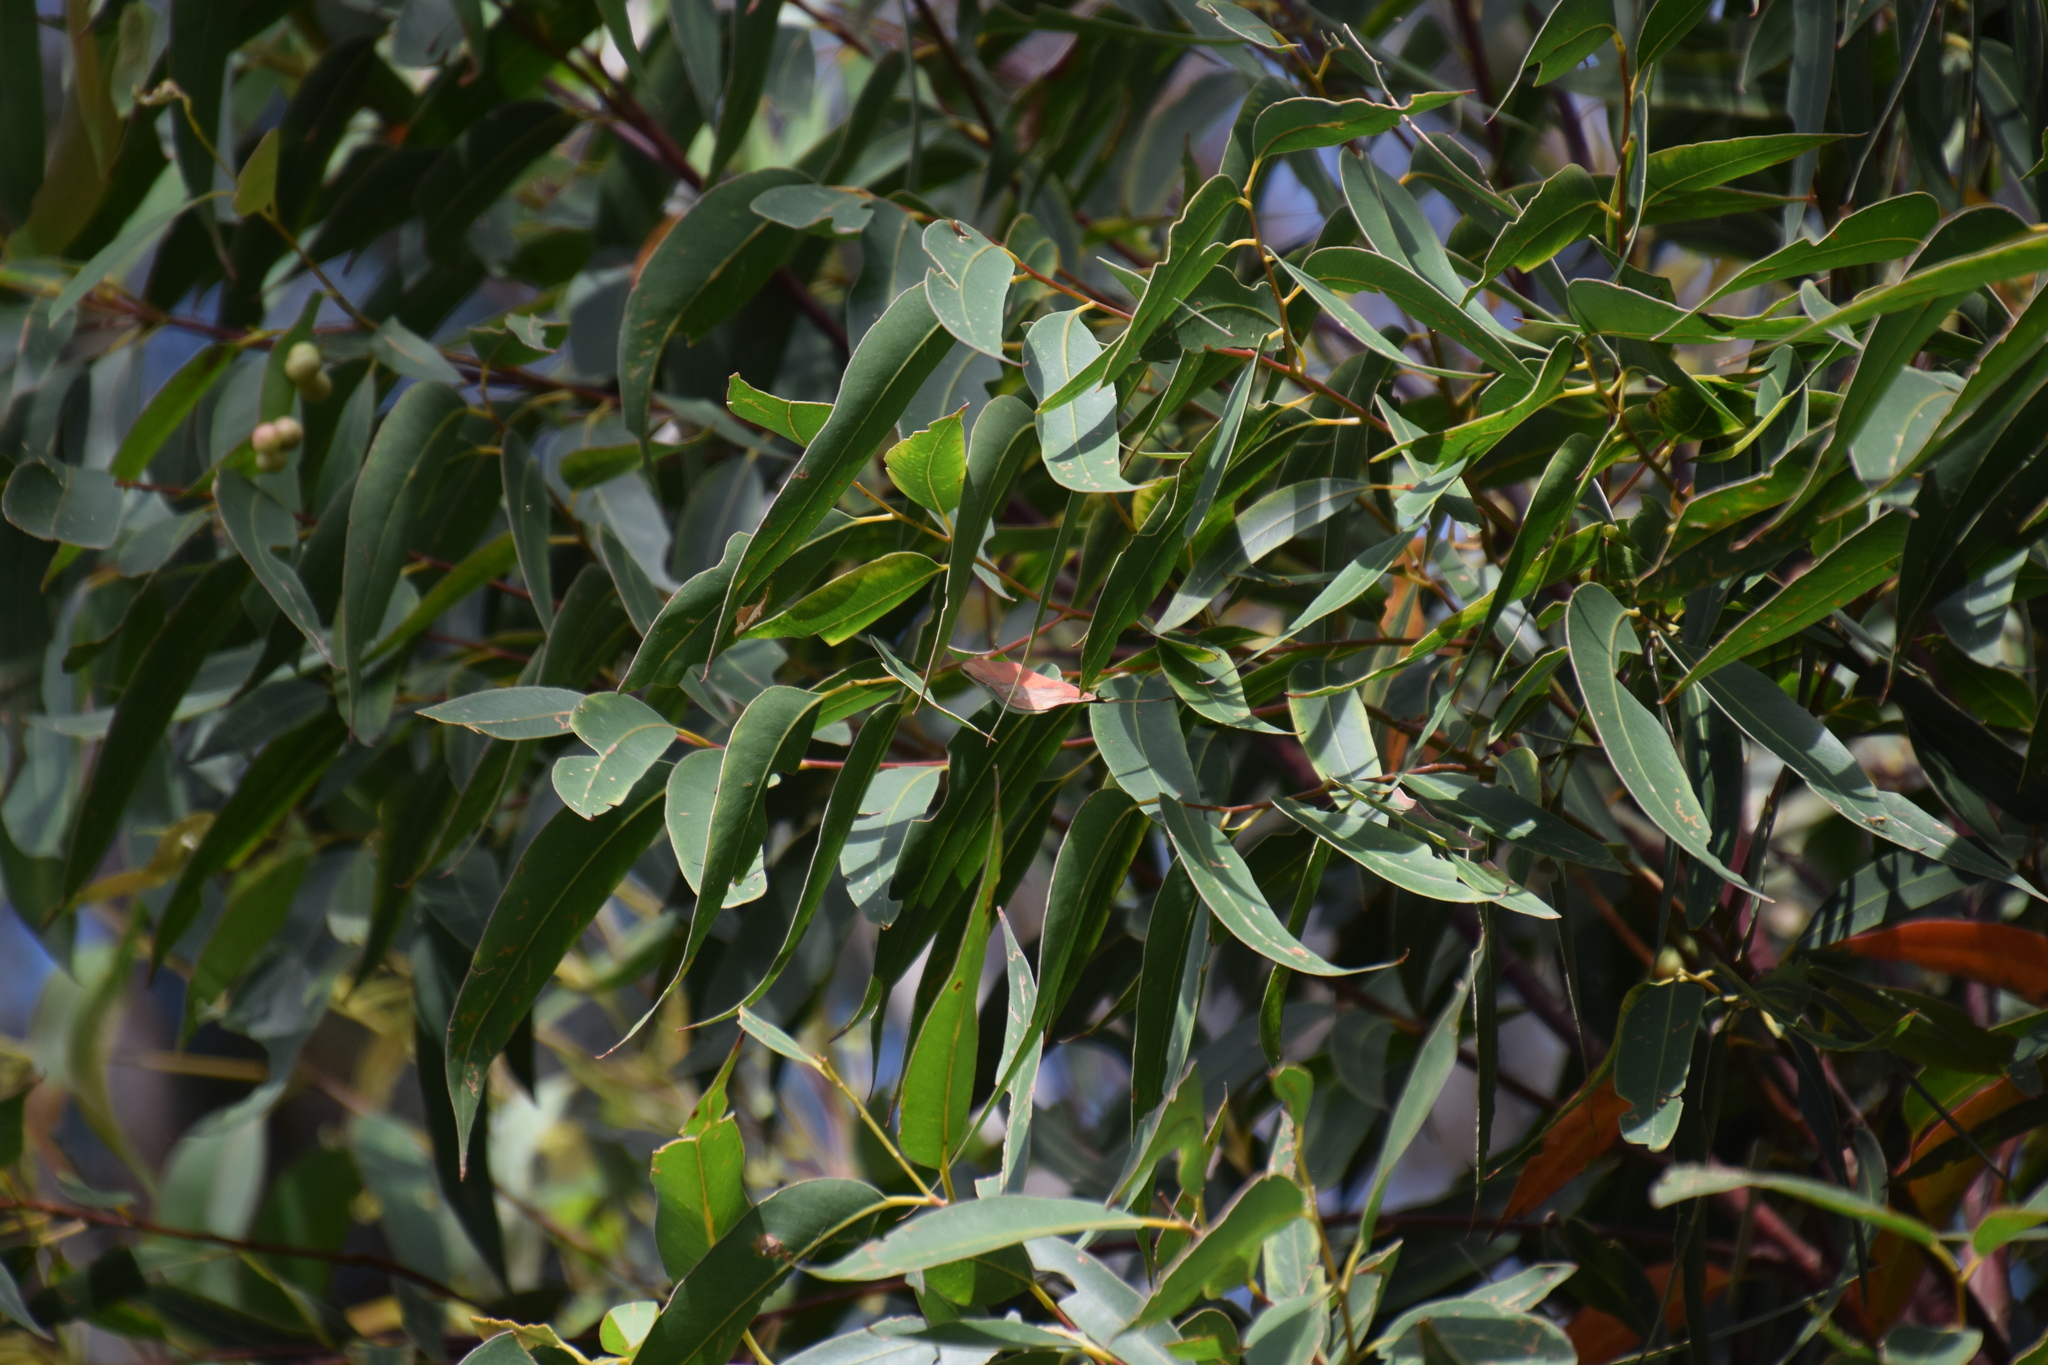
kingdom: Plantae
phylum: Tracheophyta
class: Magnoliopsida
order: Myrtales
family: Myrtaceae
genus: Eucalyptus
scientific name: Eucalyptus pilularis
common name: Blackbutt
